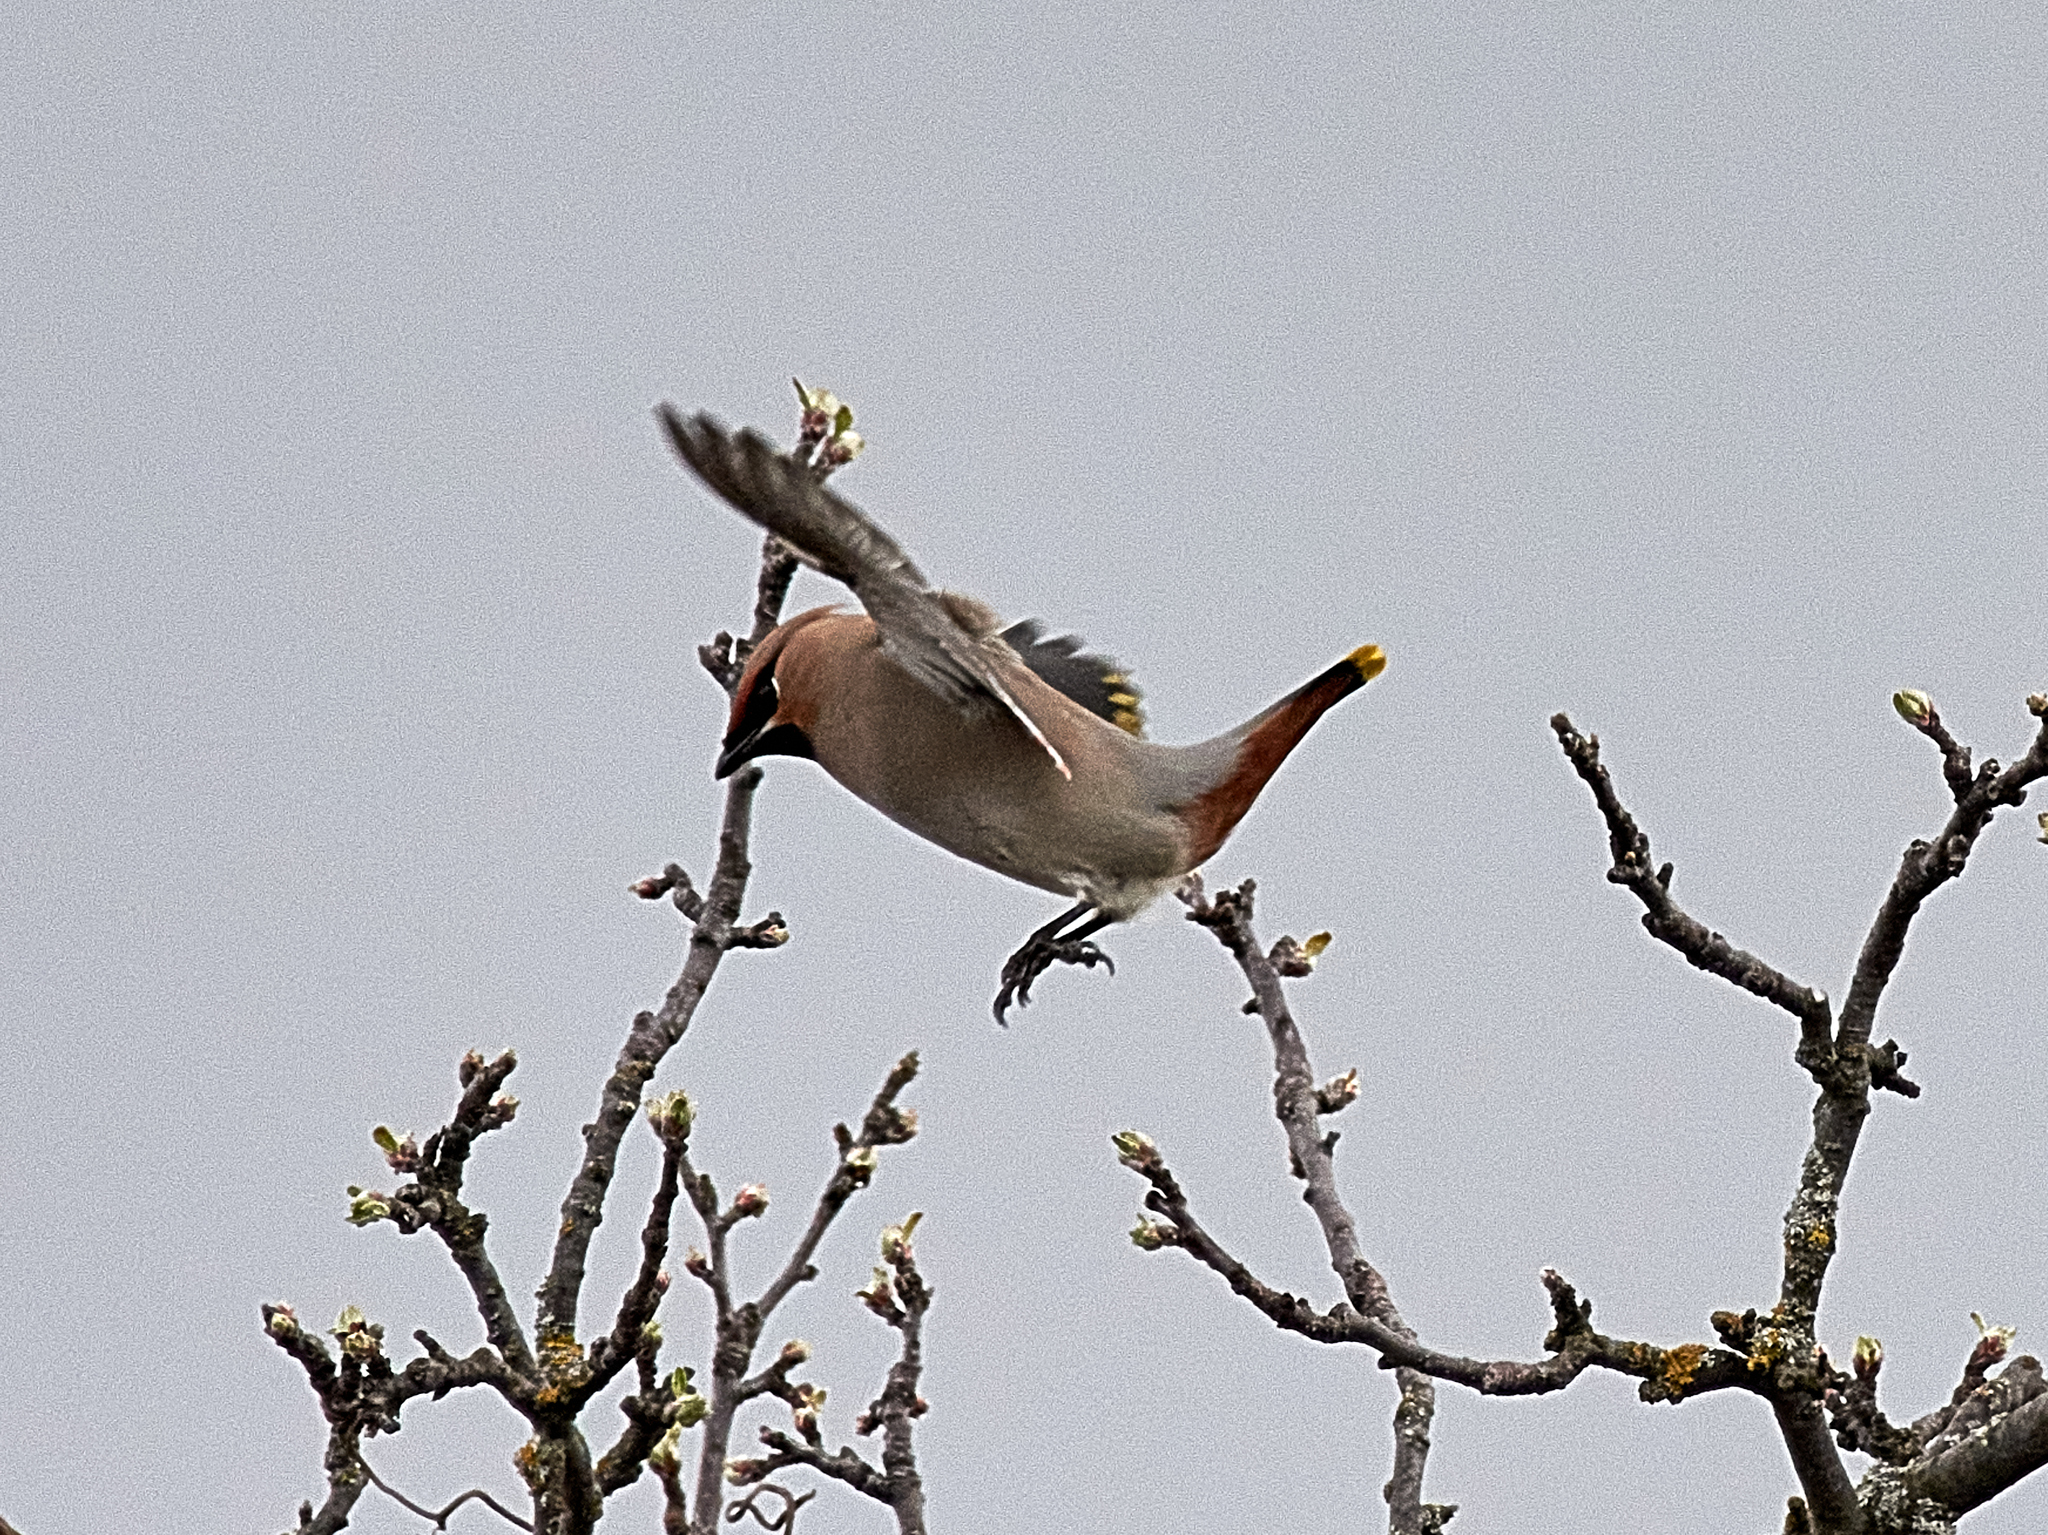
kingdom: Animalia
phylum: Chordata
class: Aves
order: Passeriformes
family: Bombycillidae
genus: Bombycilla
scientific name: Bombycilla garrulus
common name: Bohemian waxwing
